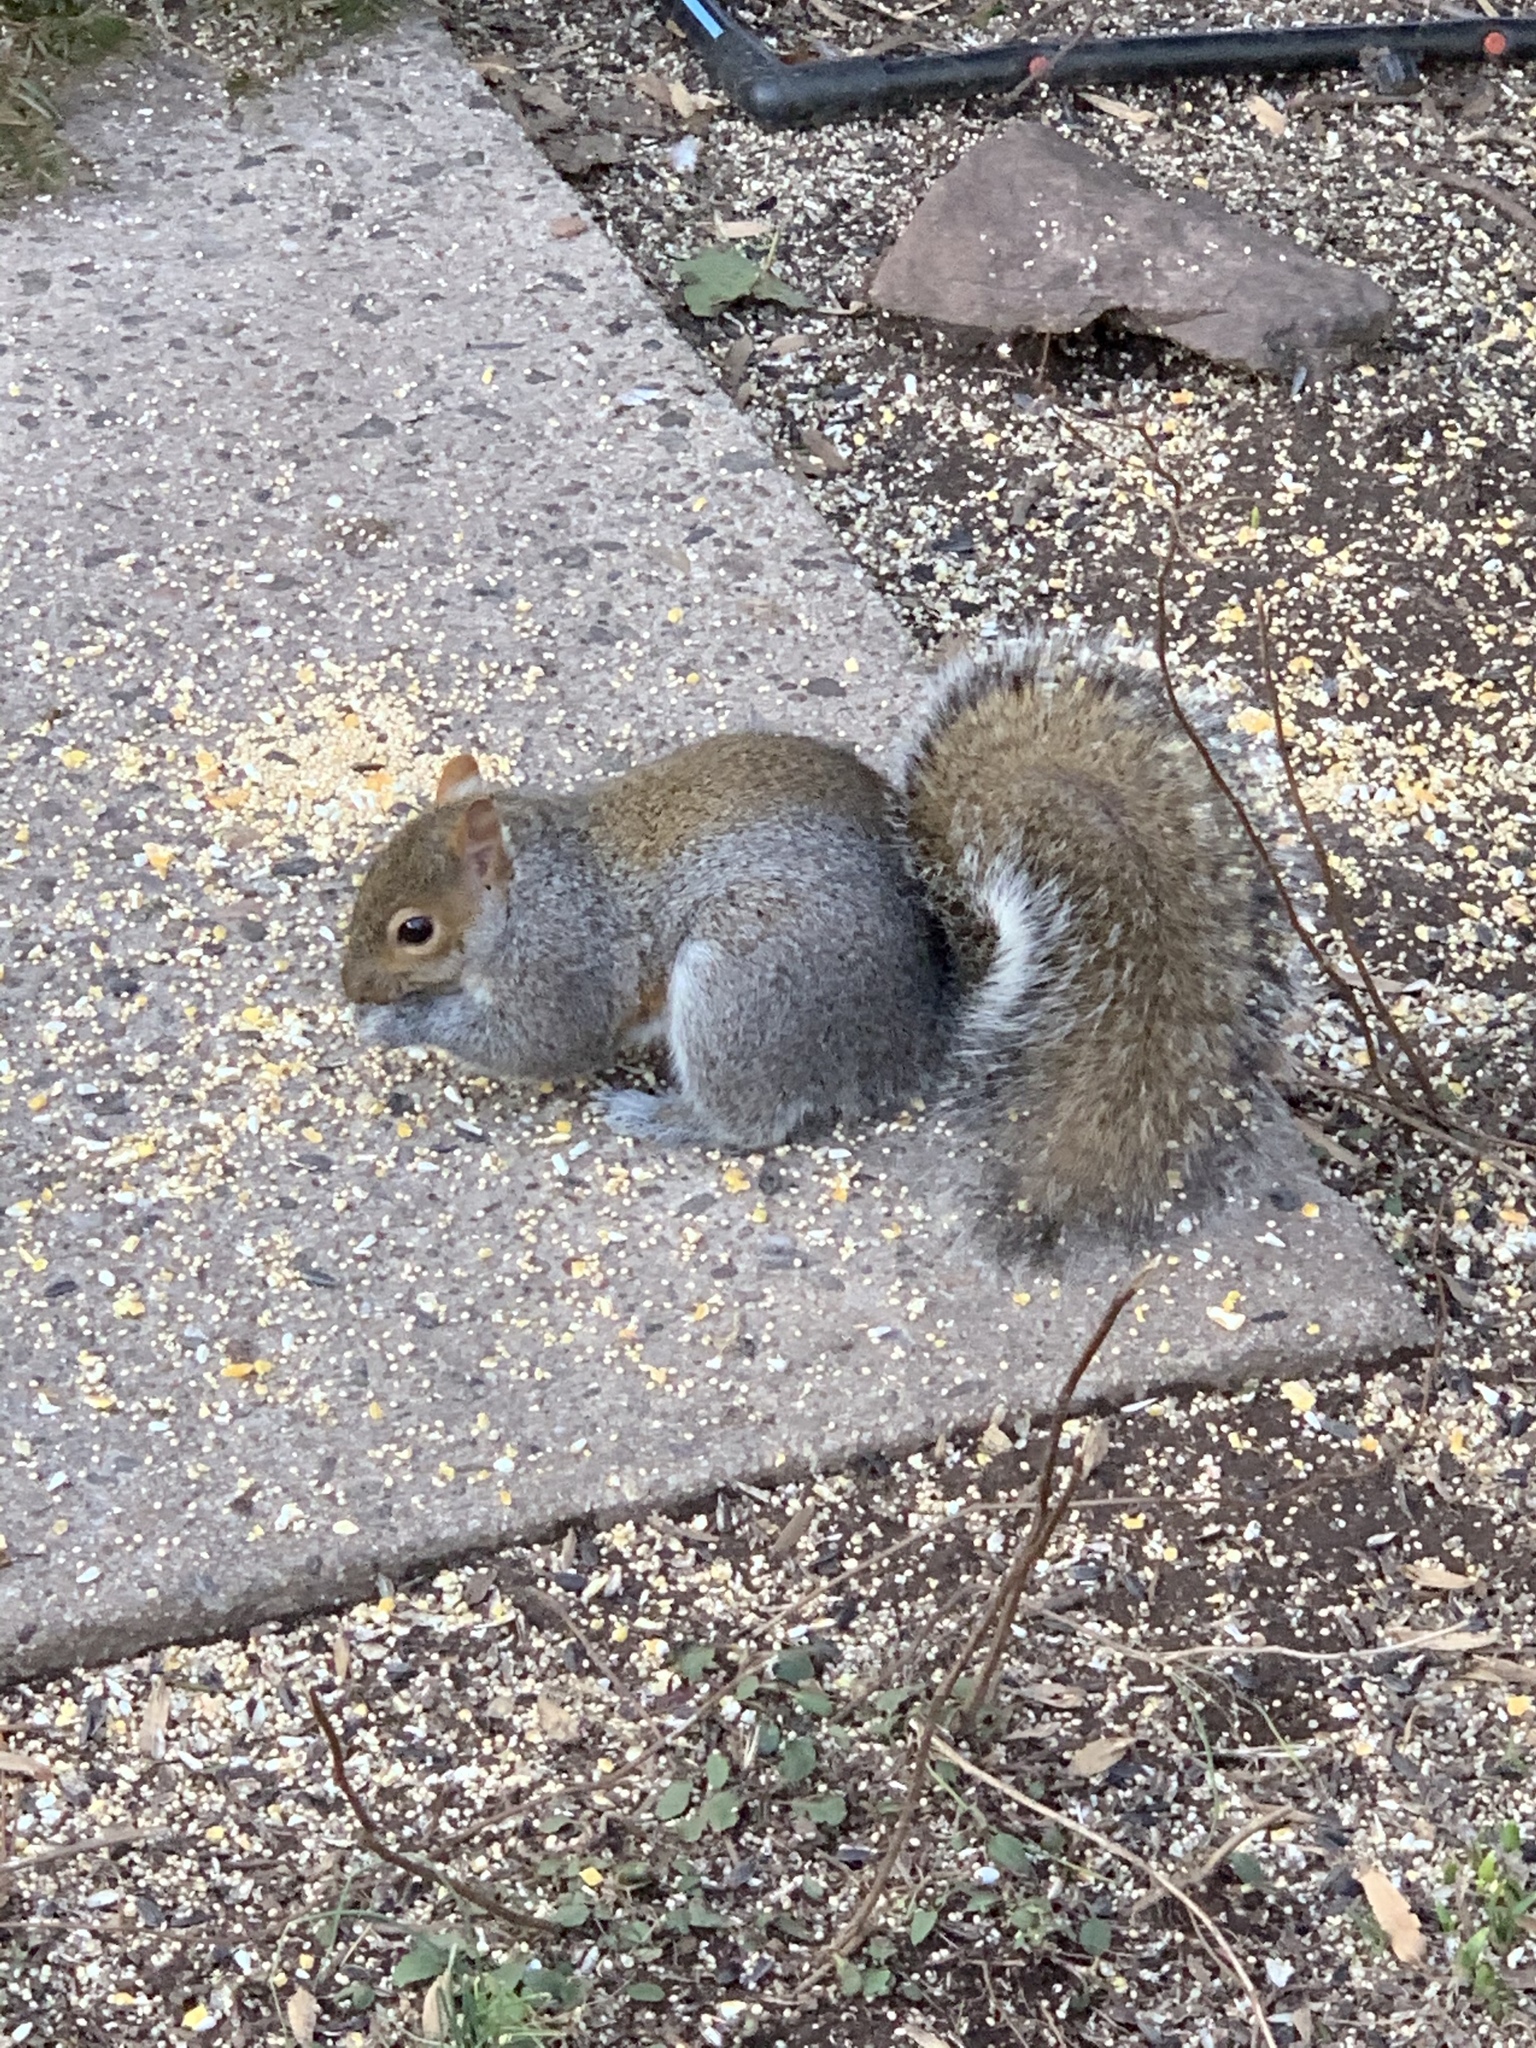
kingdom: Animalia
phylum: Chordata
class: Mammalia
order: Rodentia
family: Sciuridae
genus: Sciurus
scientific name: Sciurus carolinensis
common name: Eastern gray squirrel
